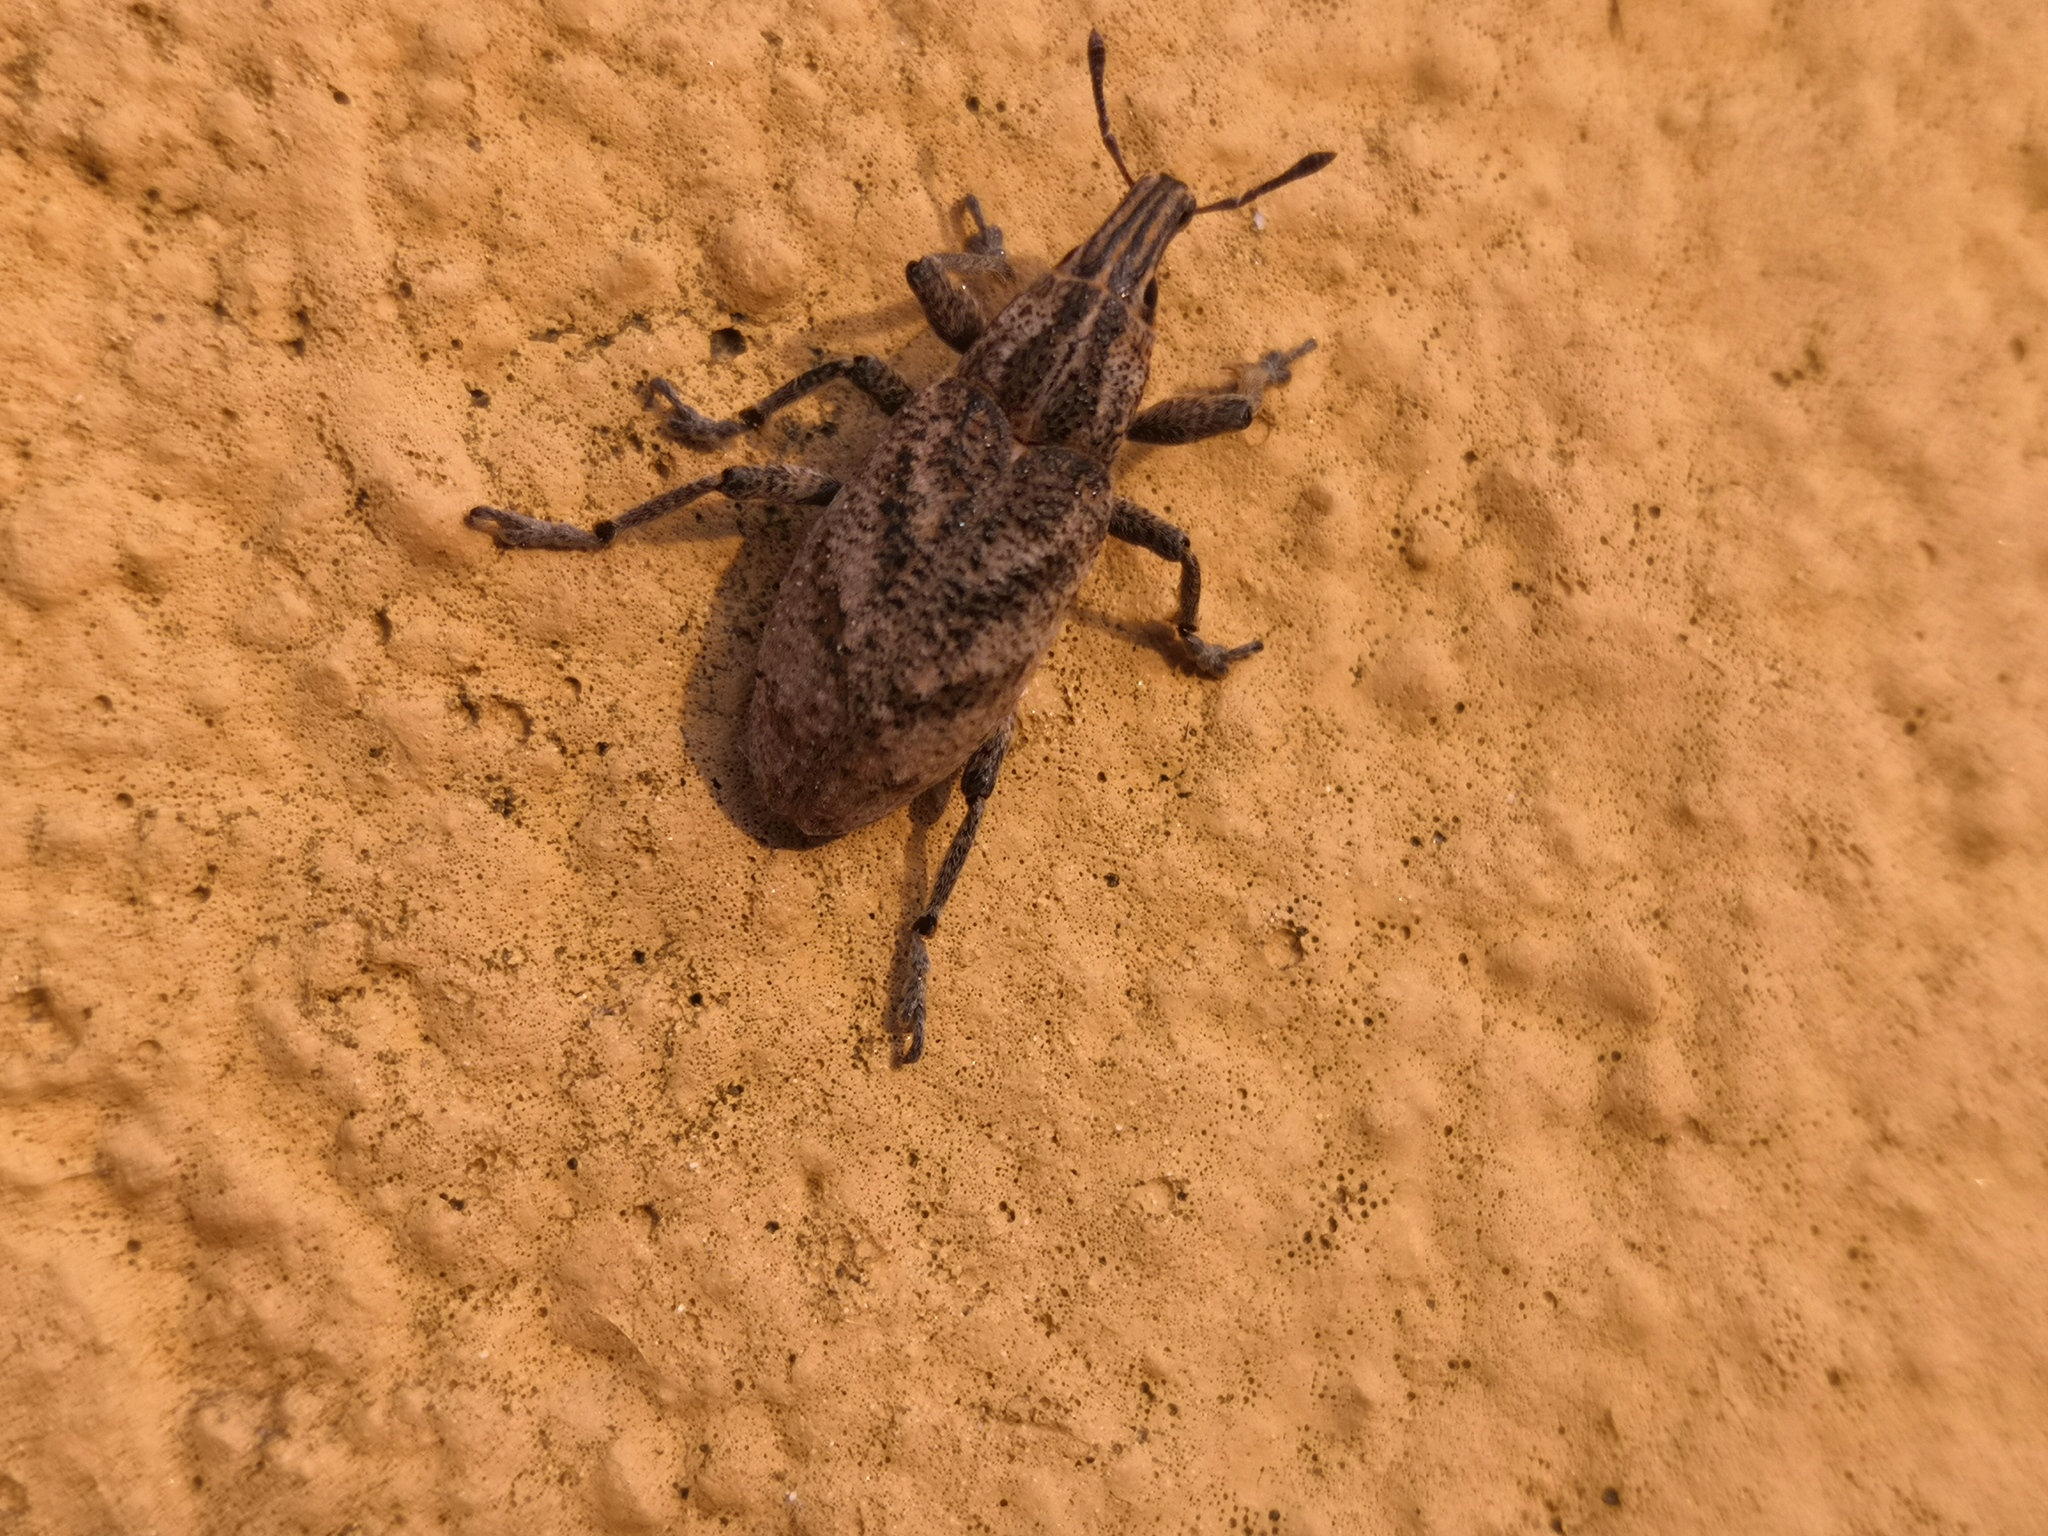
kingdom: Animalia
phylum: Arthropoda
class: Insecta
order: Coleoptera
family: Curculionidae
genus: Cleonis
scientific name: Cleonis pigra
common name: Large thistle weevil
